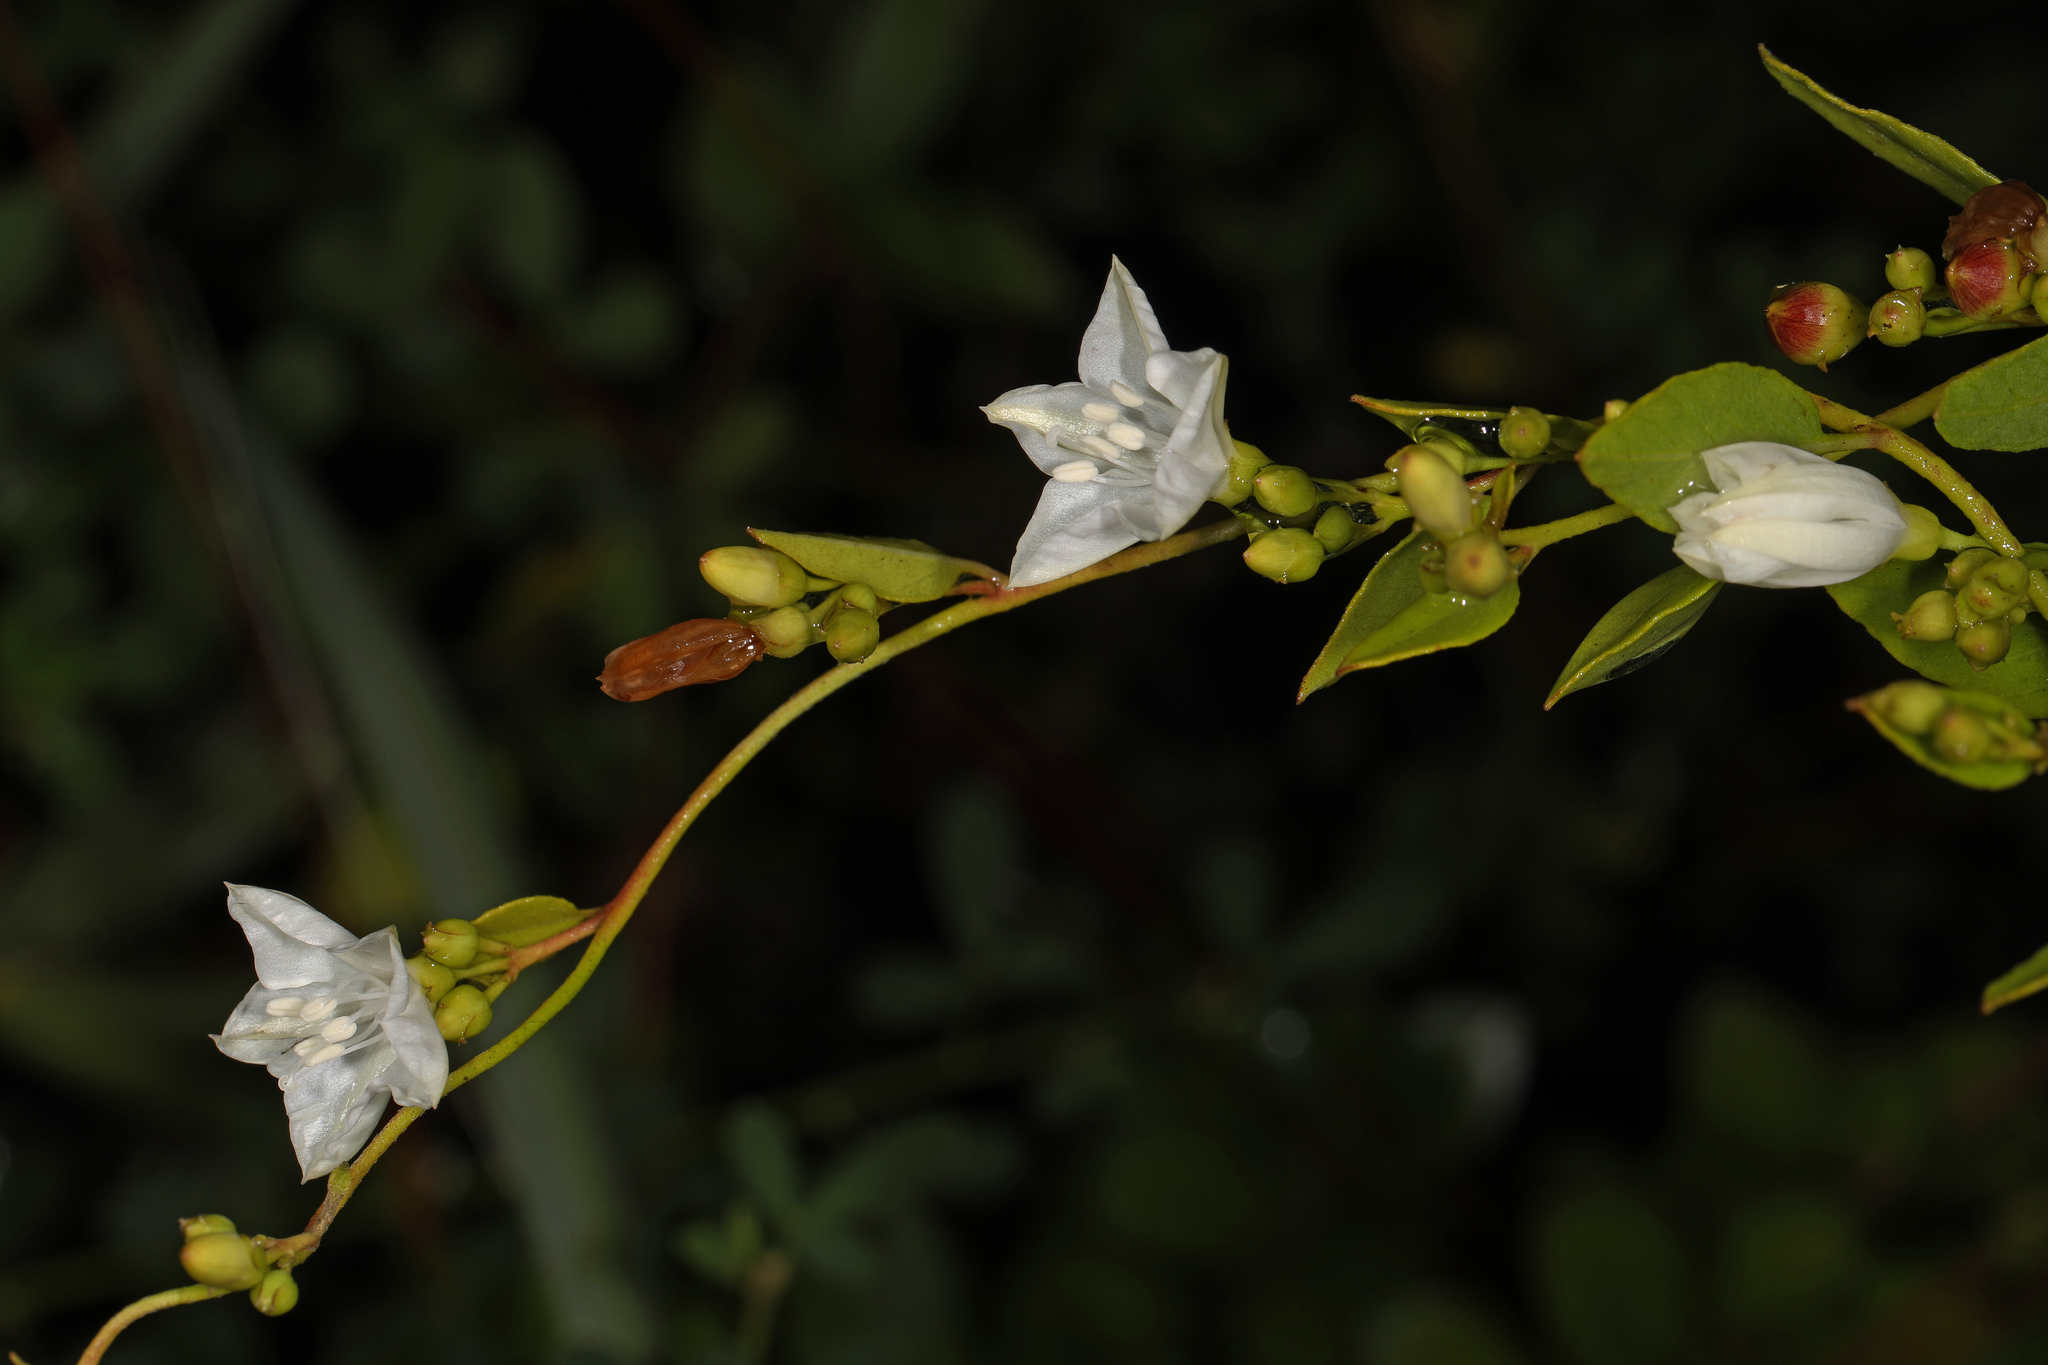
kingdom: Plantae
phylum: Tracheophyta
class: Magnoliopsida
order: Solanales
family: Convolvulaceae
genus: Jacquemontia
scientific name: Jacquemontia curtissii
